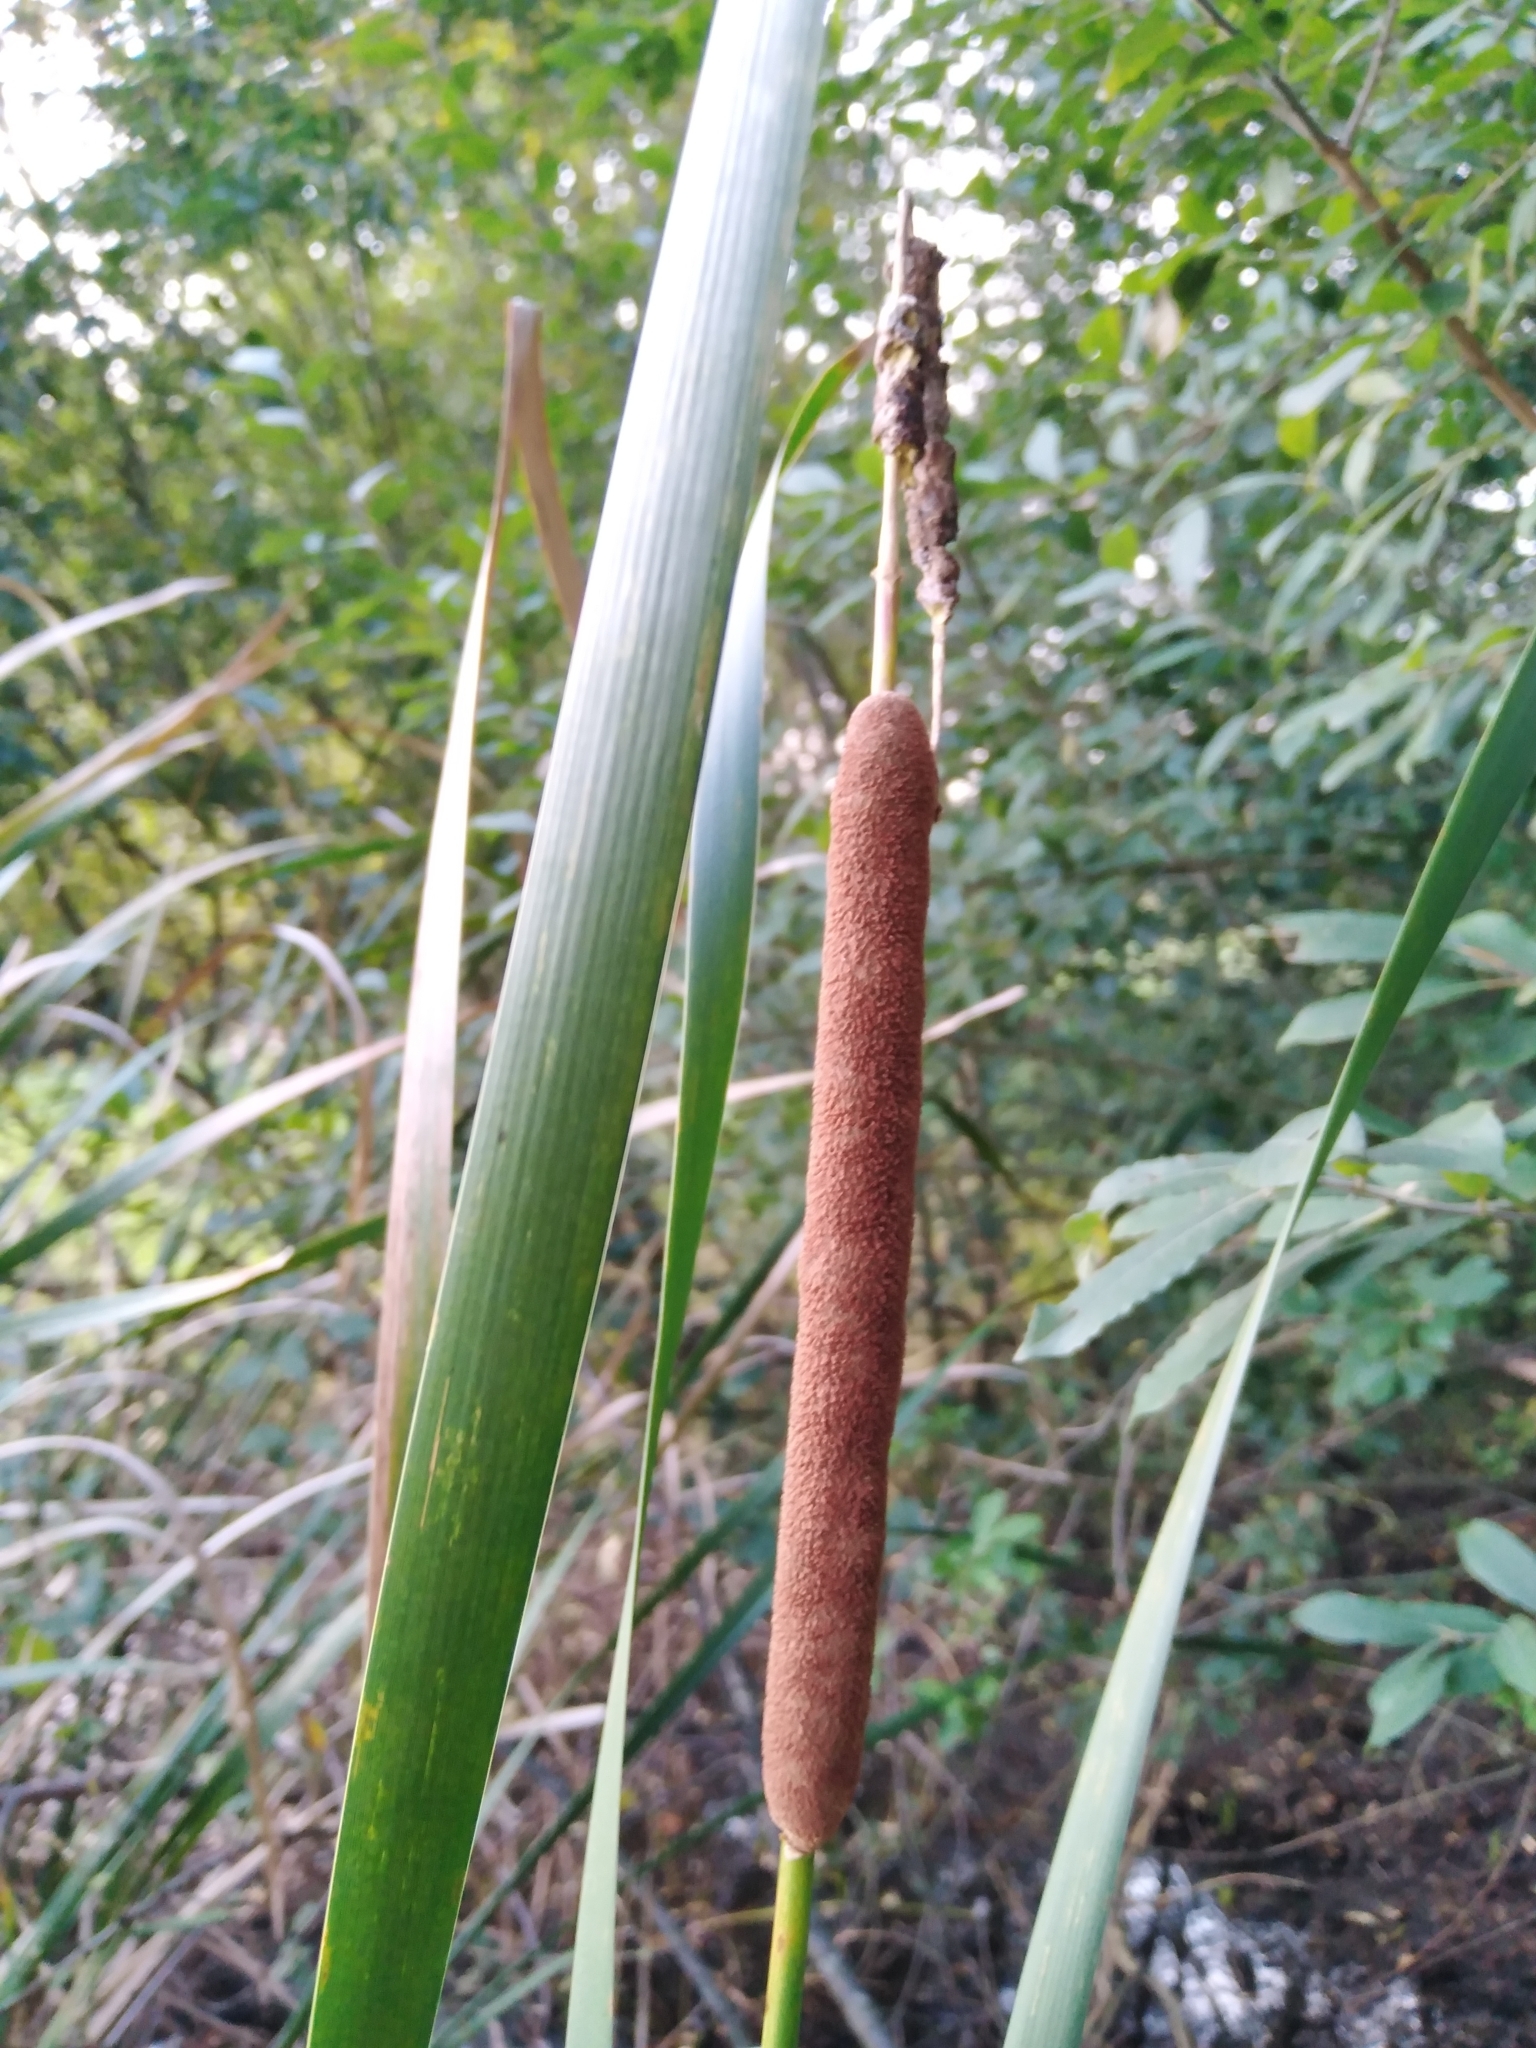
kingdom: Plantae
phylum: Tracheophyta
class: Liliopsida
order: Poales
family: Typhaceae
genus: Typha
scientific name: Typha angustifolia
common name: Lesser bulrush
